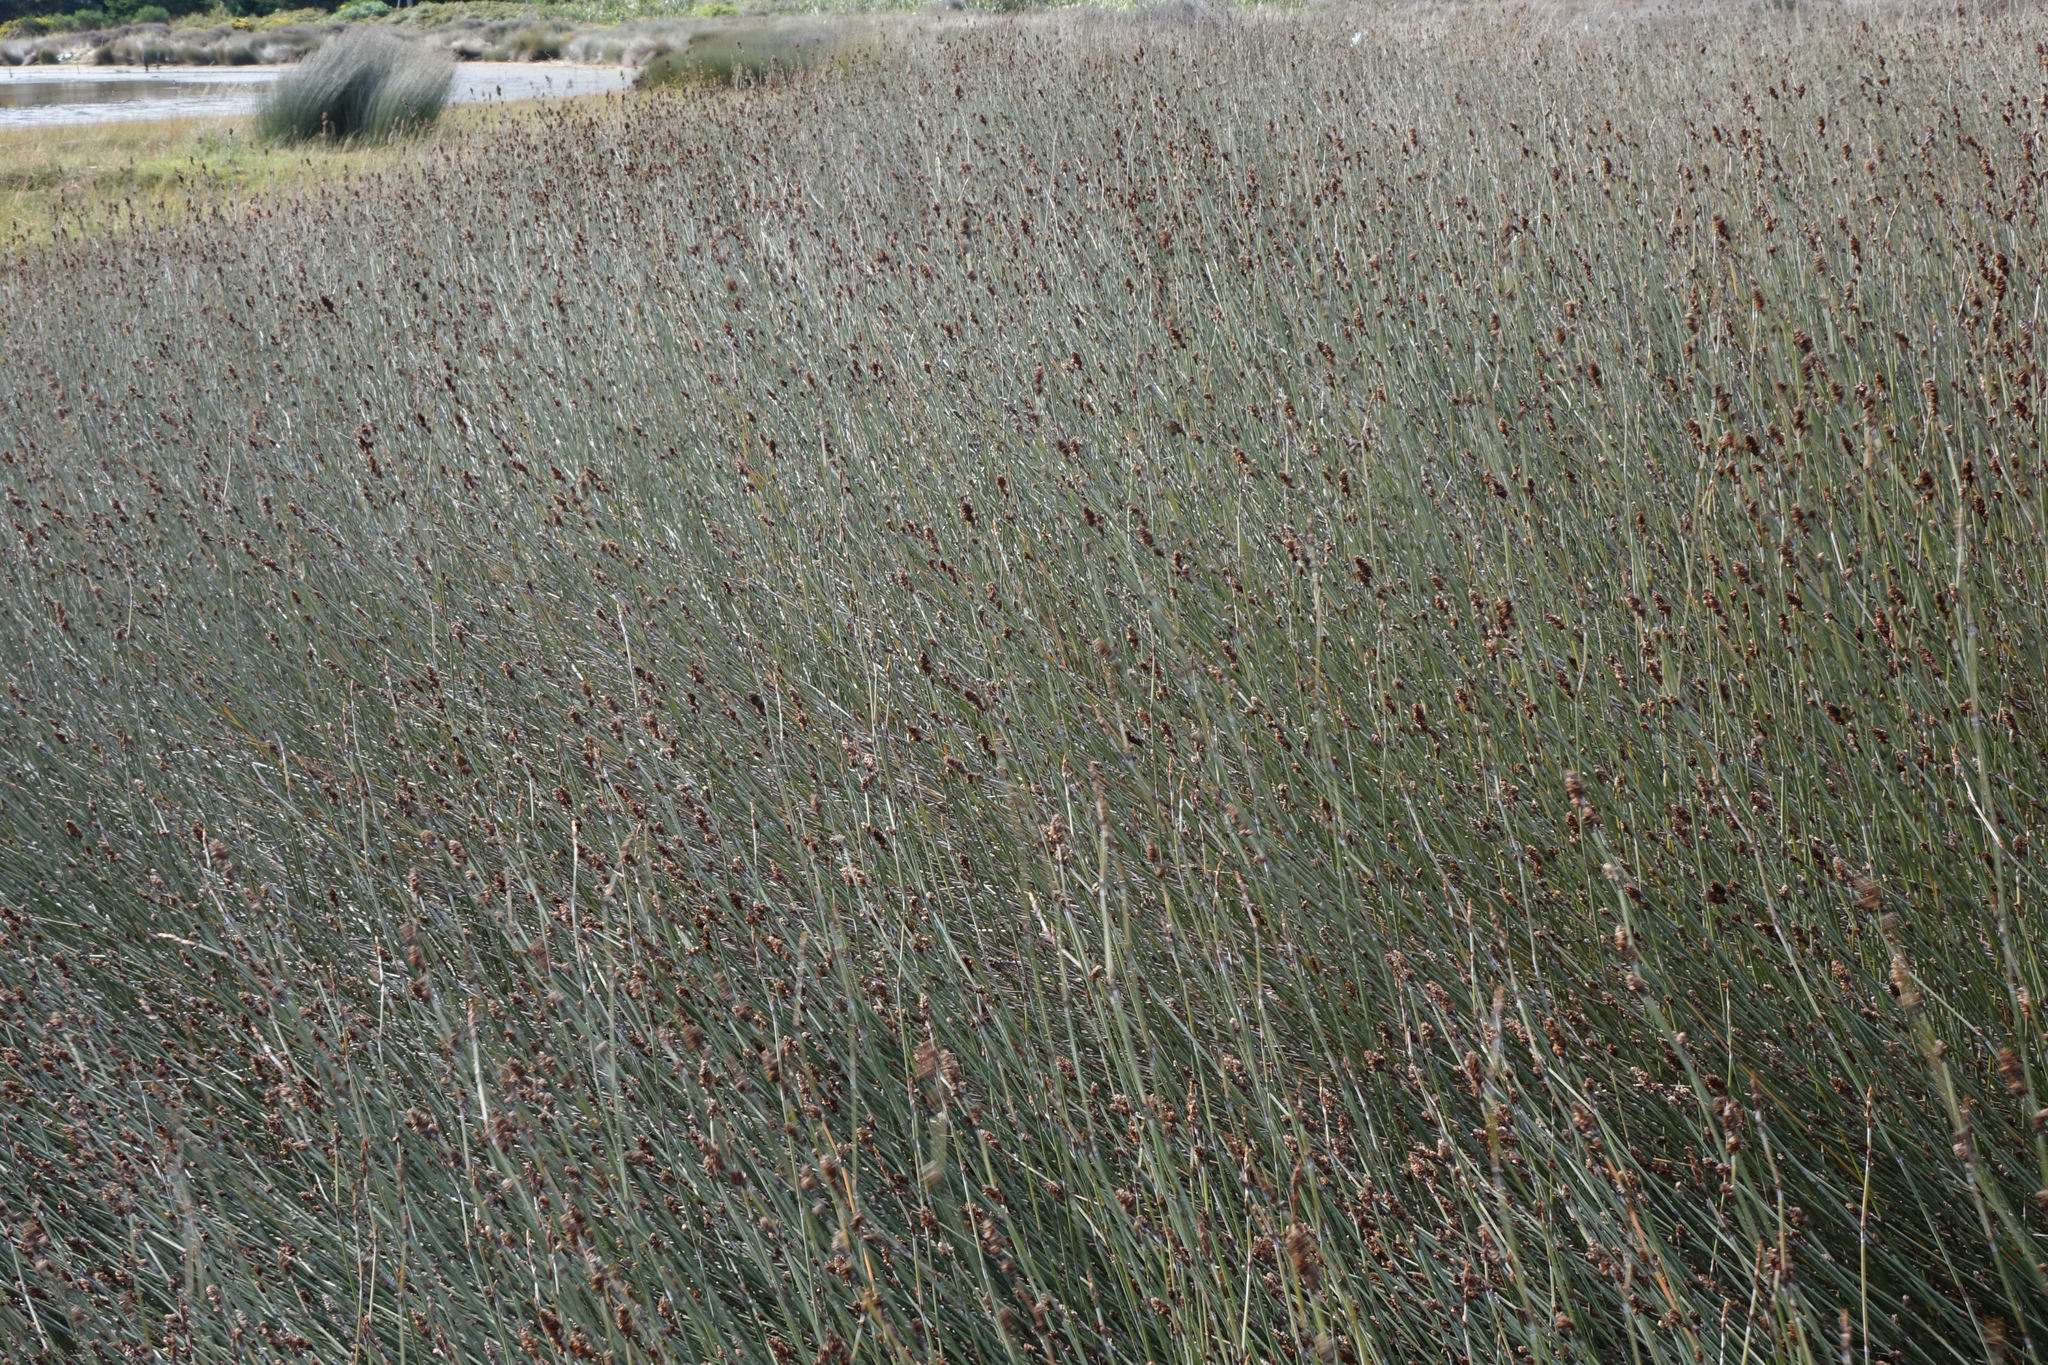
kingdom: Plantae
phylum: Tracheophyta
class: Liliopsida
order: Poales
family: Restionaceae
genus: Apodasmia
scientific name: Apodasmia similis
